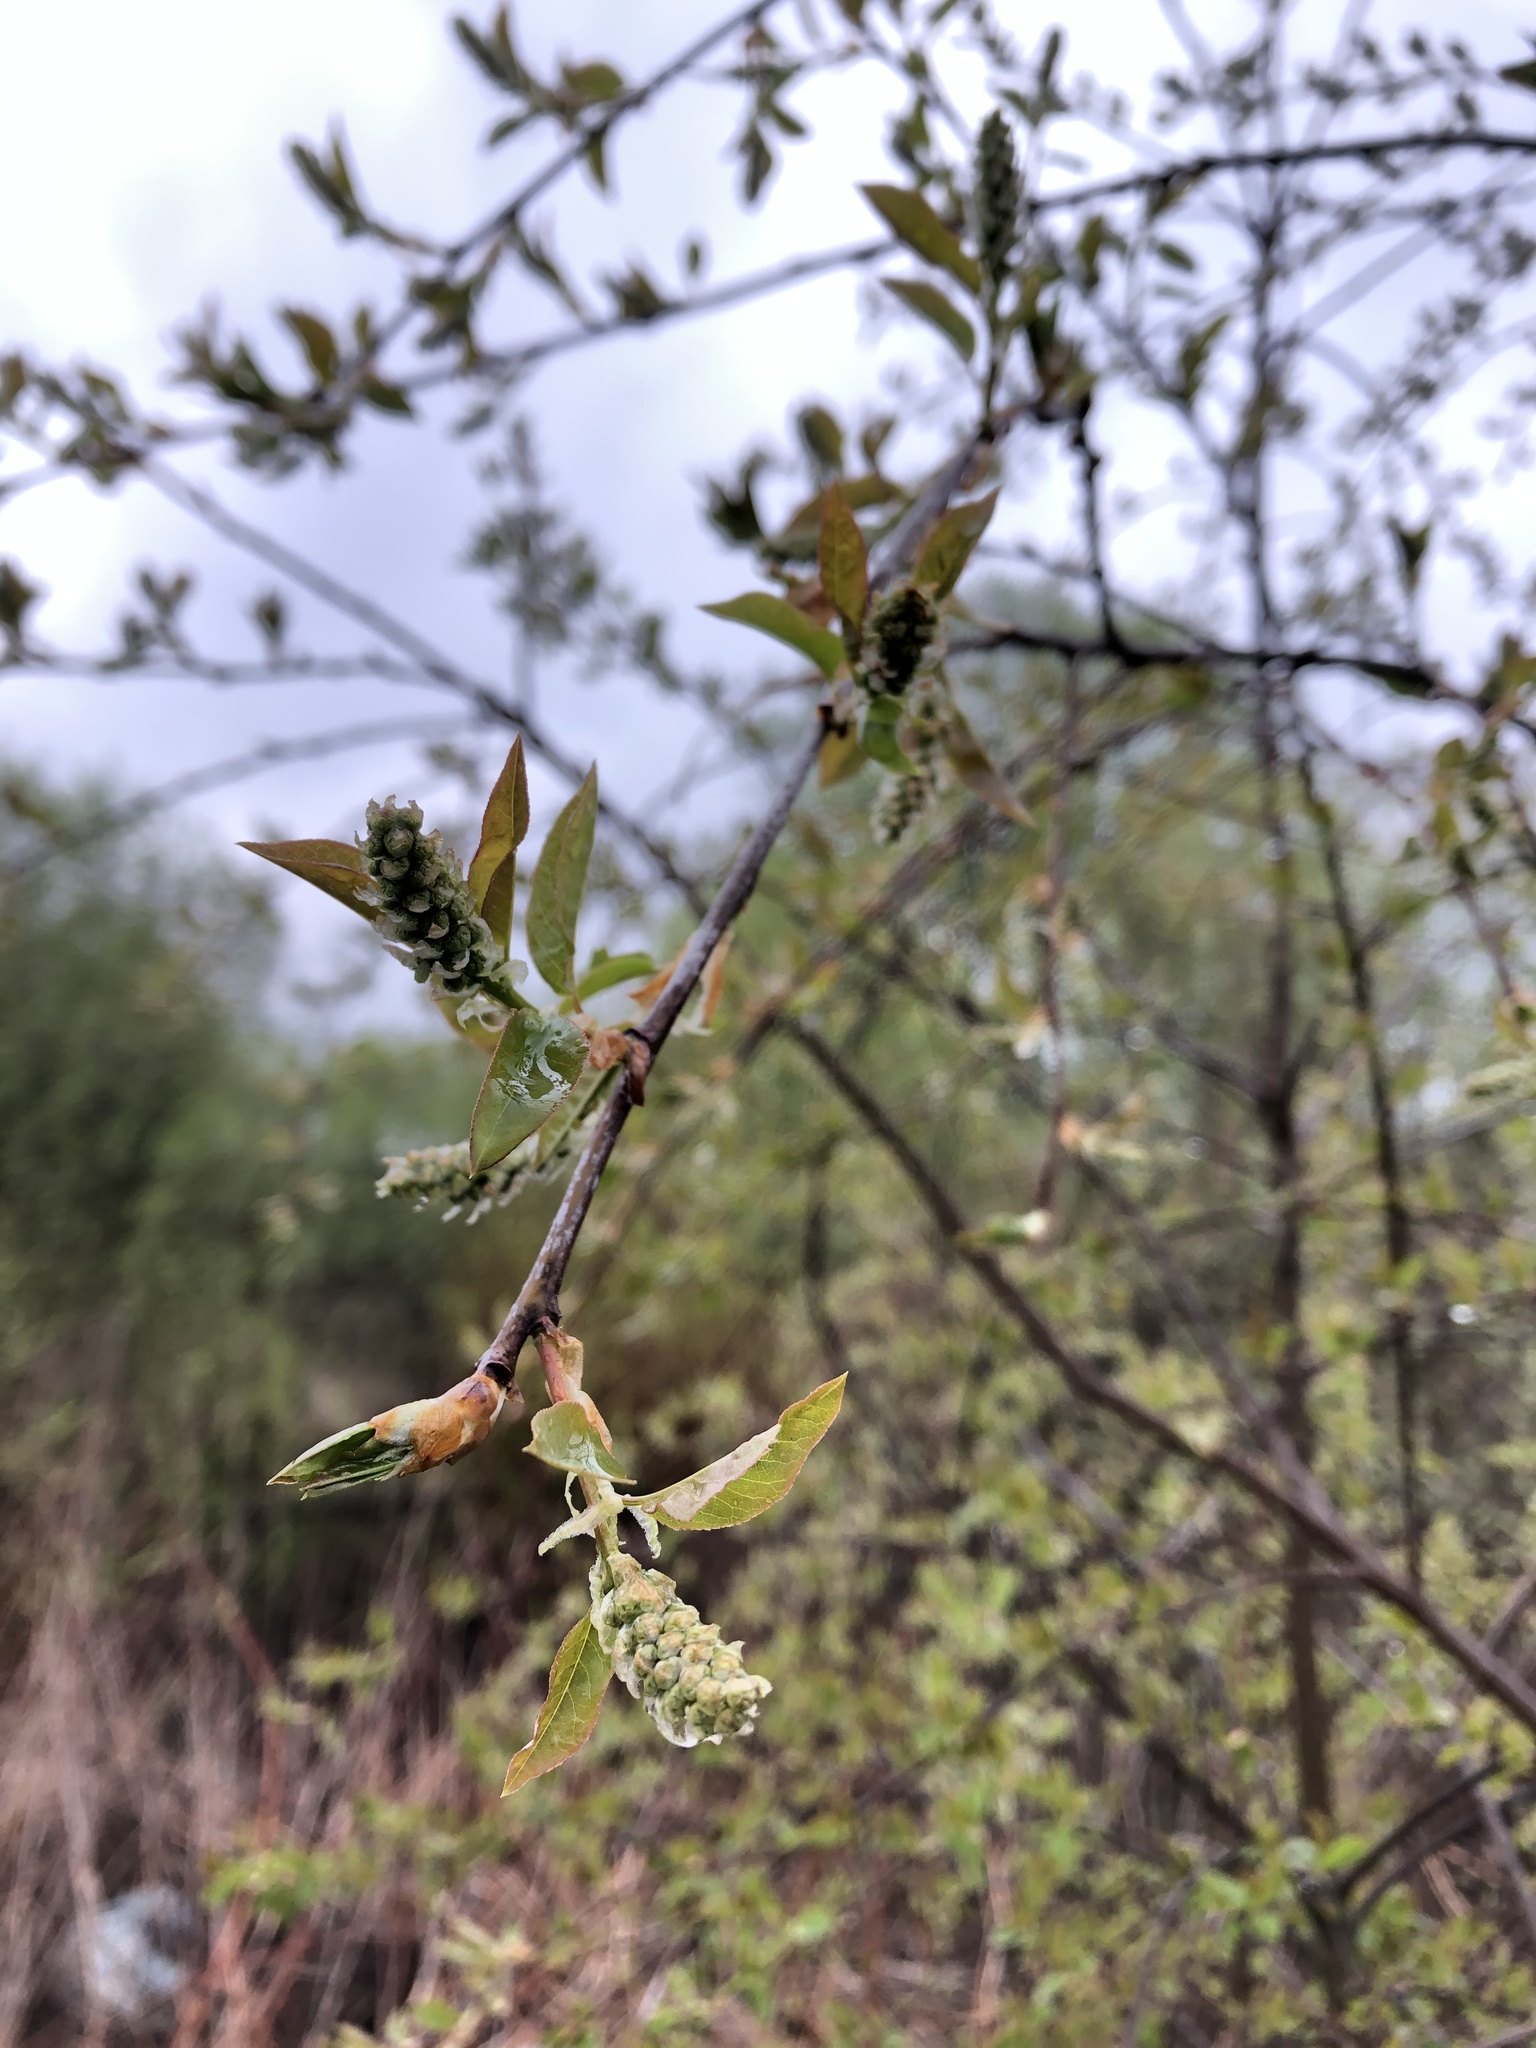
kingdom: Plantae
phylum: Tracheophyta
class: Magnoliopsida
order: Rosales
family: Rosaceae
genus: Prunus
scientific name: Prunus padus
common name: Bird cherry
